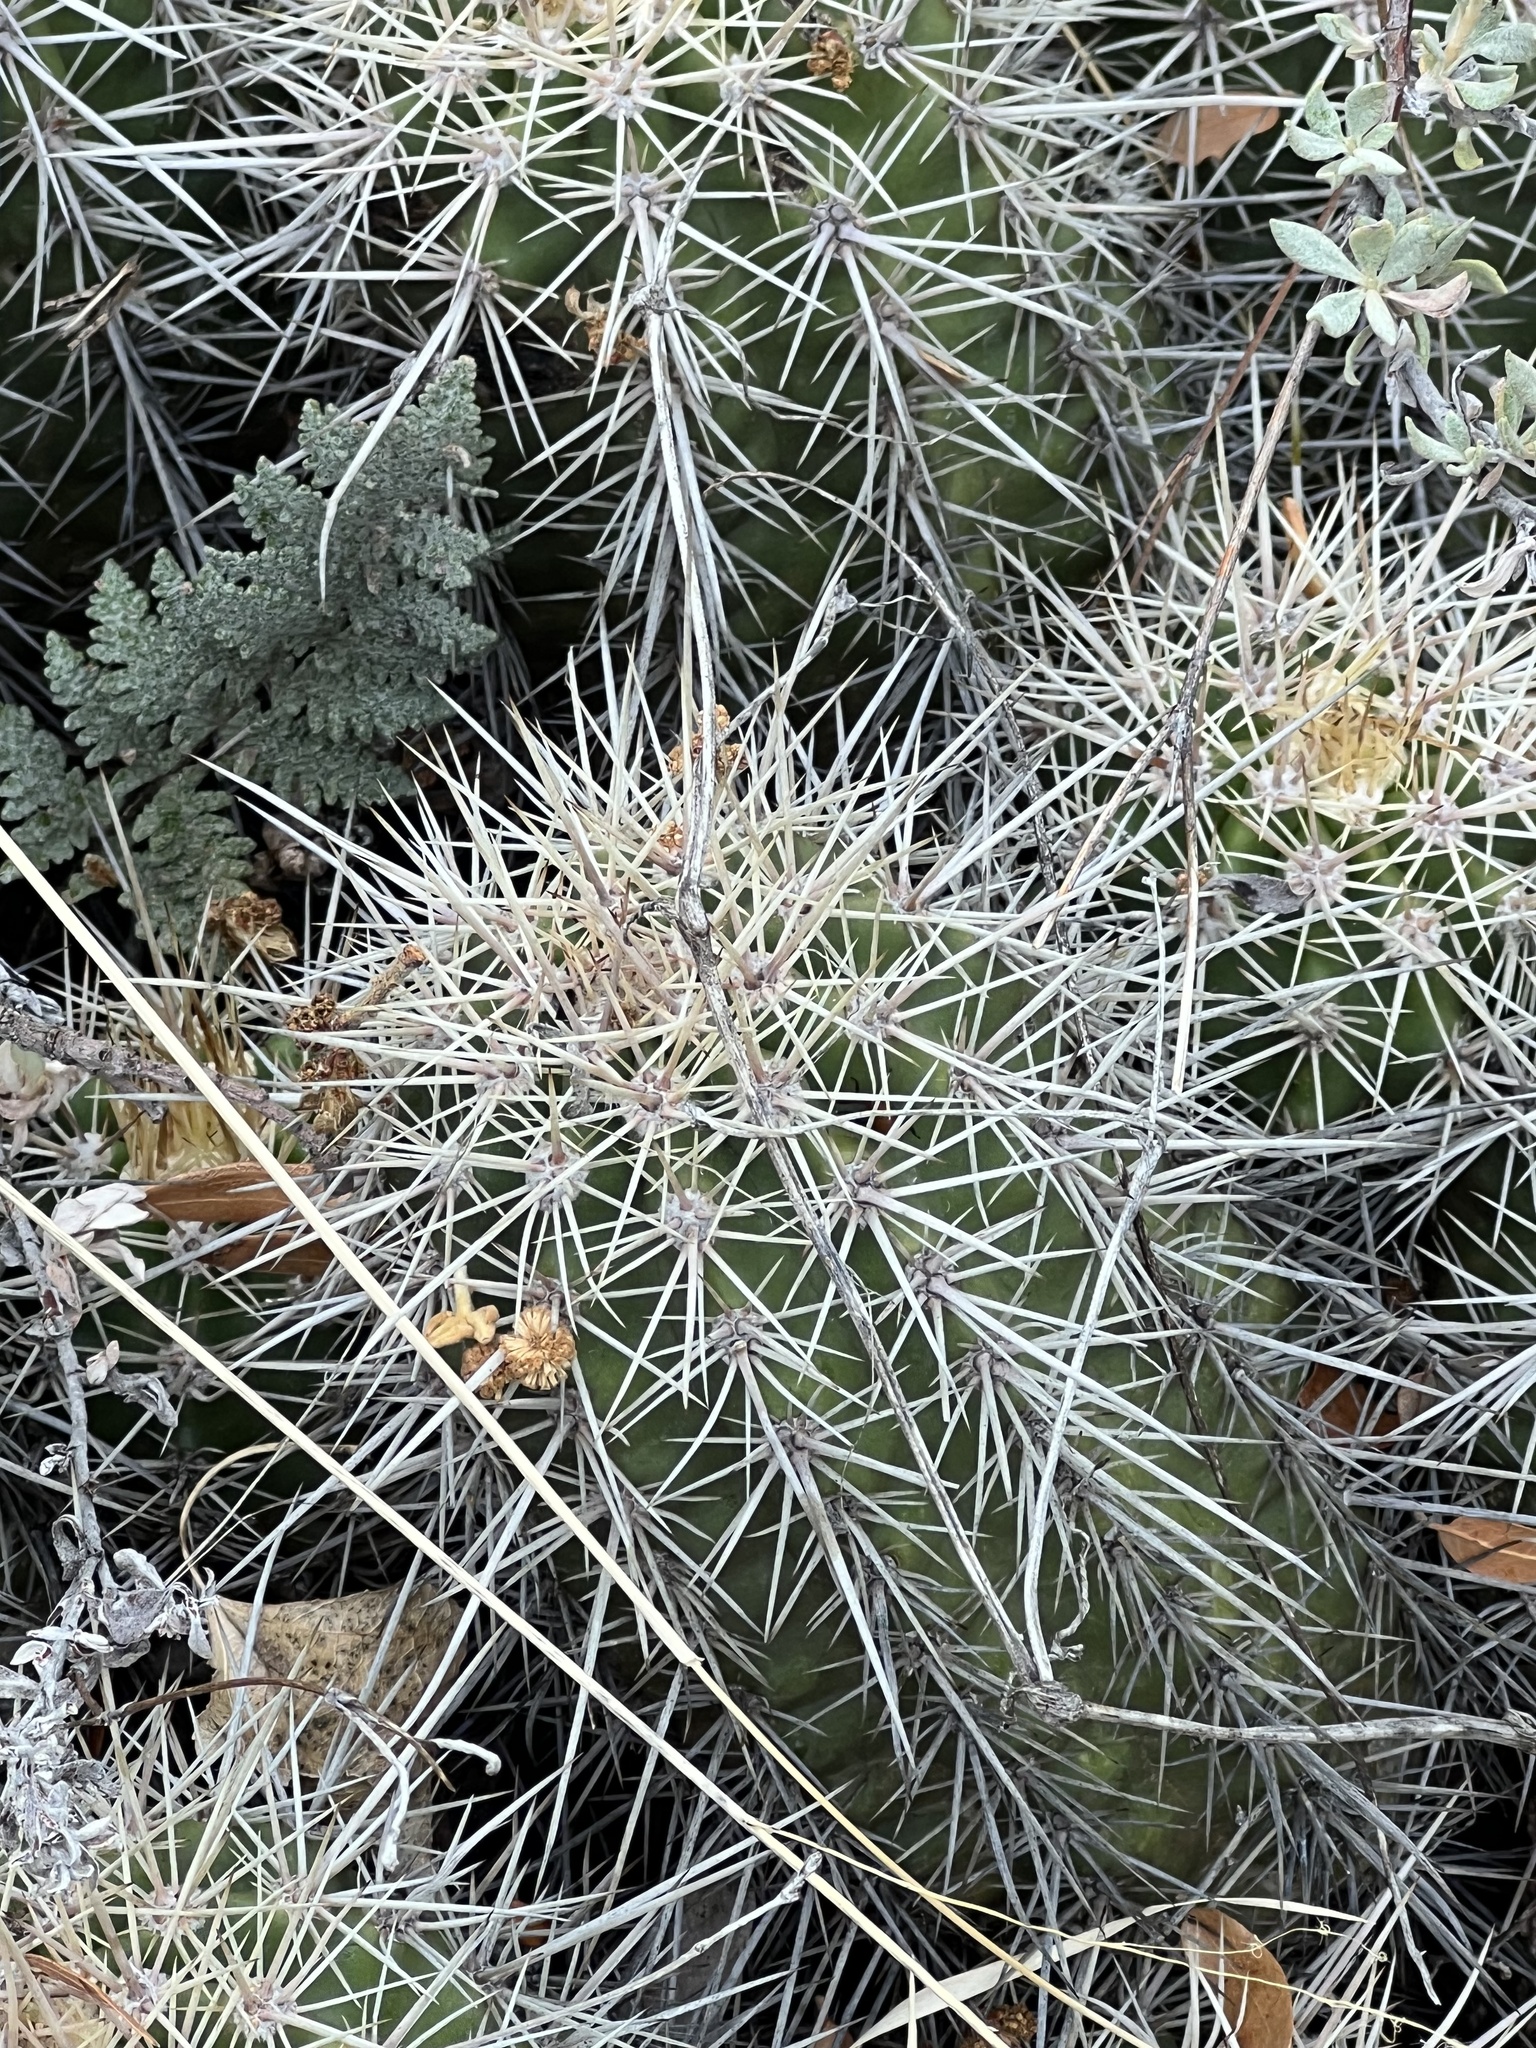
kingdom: Plantae
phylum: Tracheophyta
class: Magnoliopsida
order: Caryophyllales
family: Cactaceae
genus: Echinocereus
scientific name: Echinocereus coccineus
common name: Scarlet hedgehog cactus
